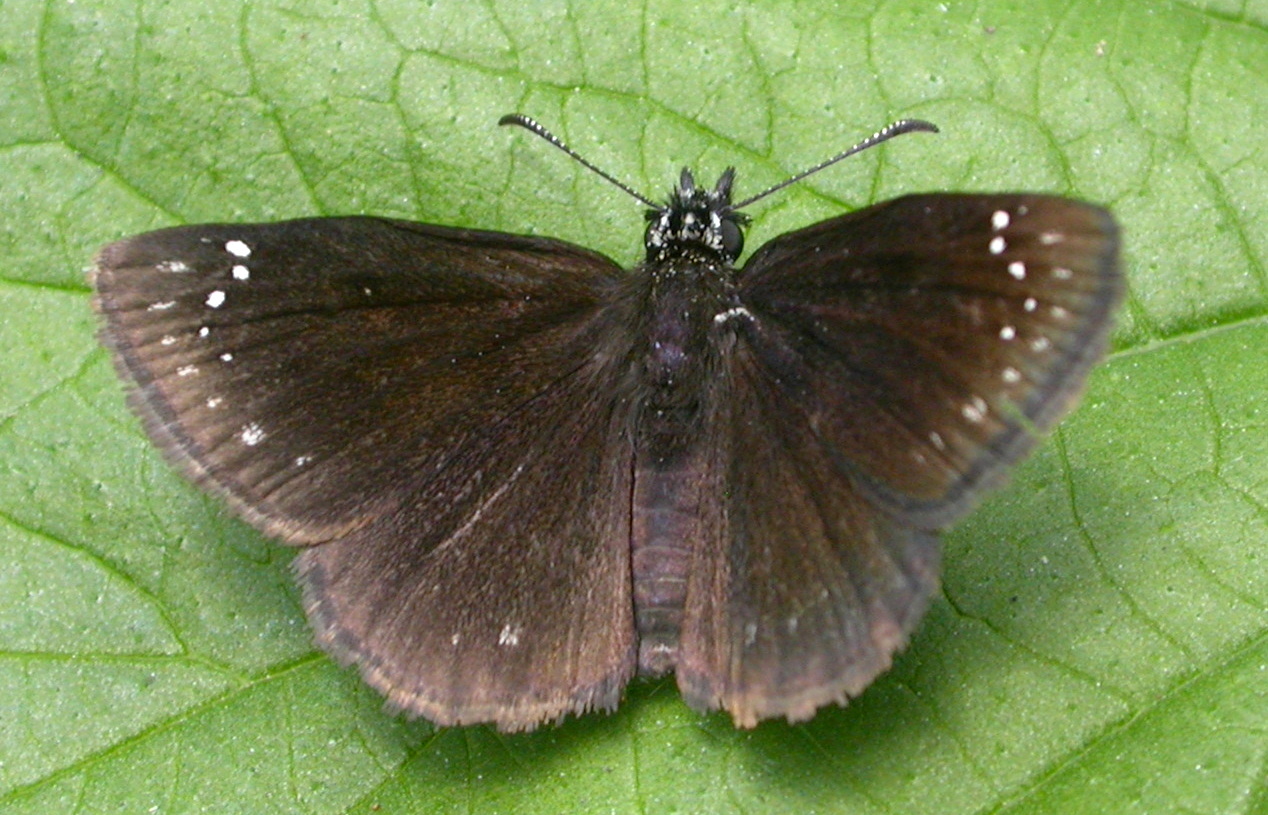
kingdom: Animalia
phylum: Arthropoda
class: Insecta
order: Lepidoptera
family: Hesperiidae
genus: Pholisora
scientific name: Pholisora catullus
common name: Common sootywing
